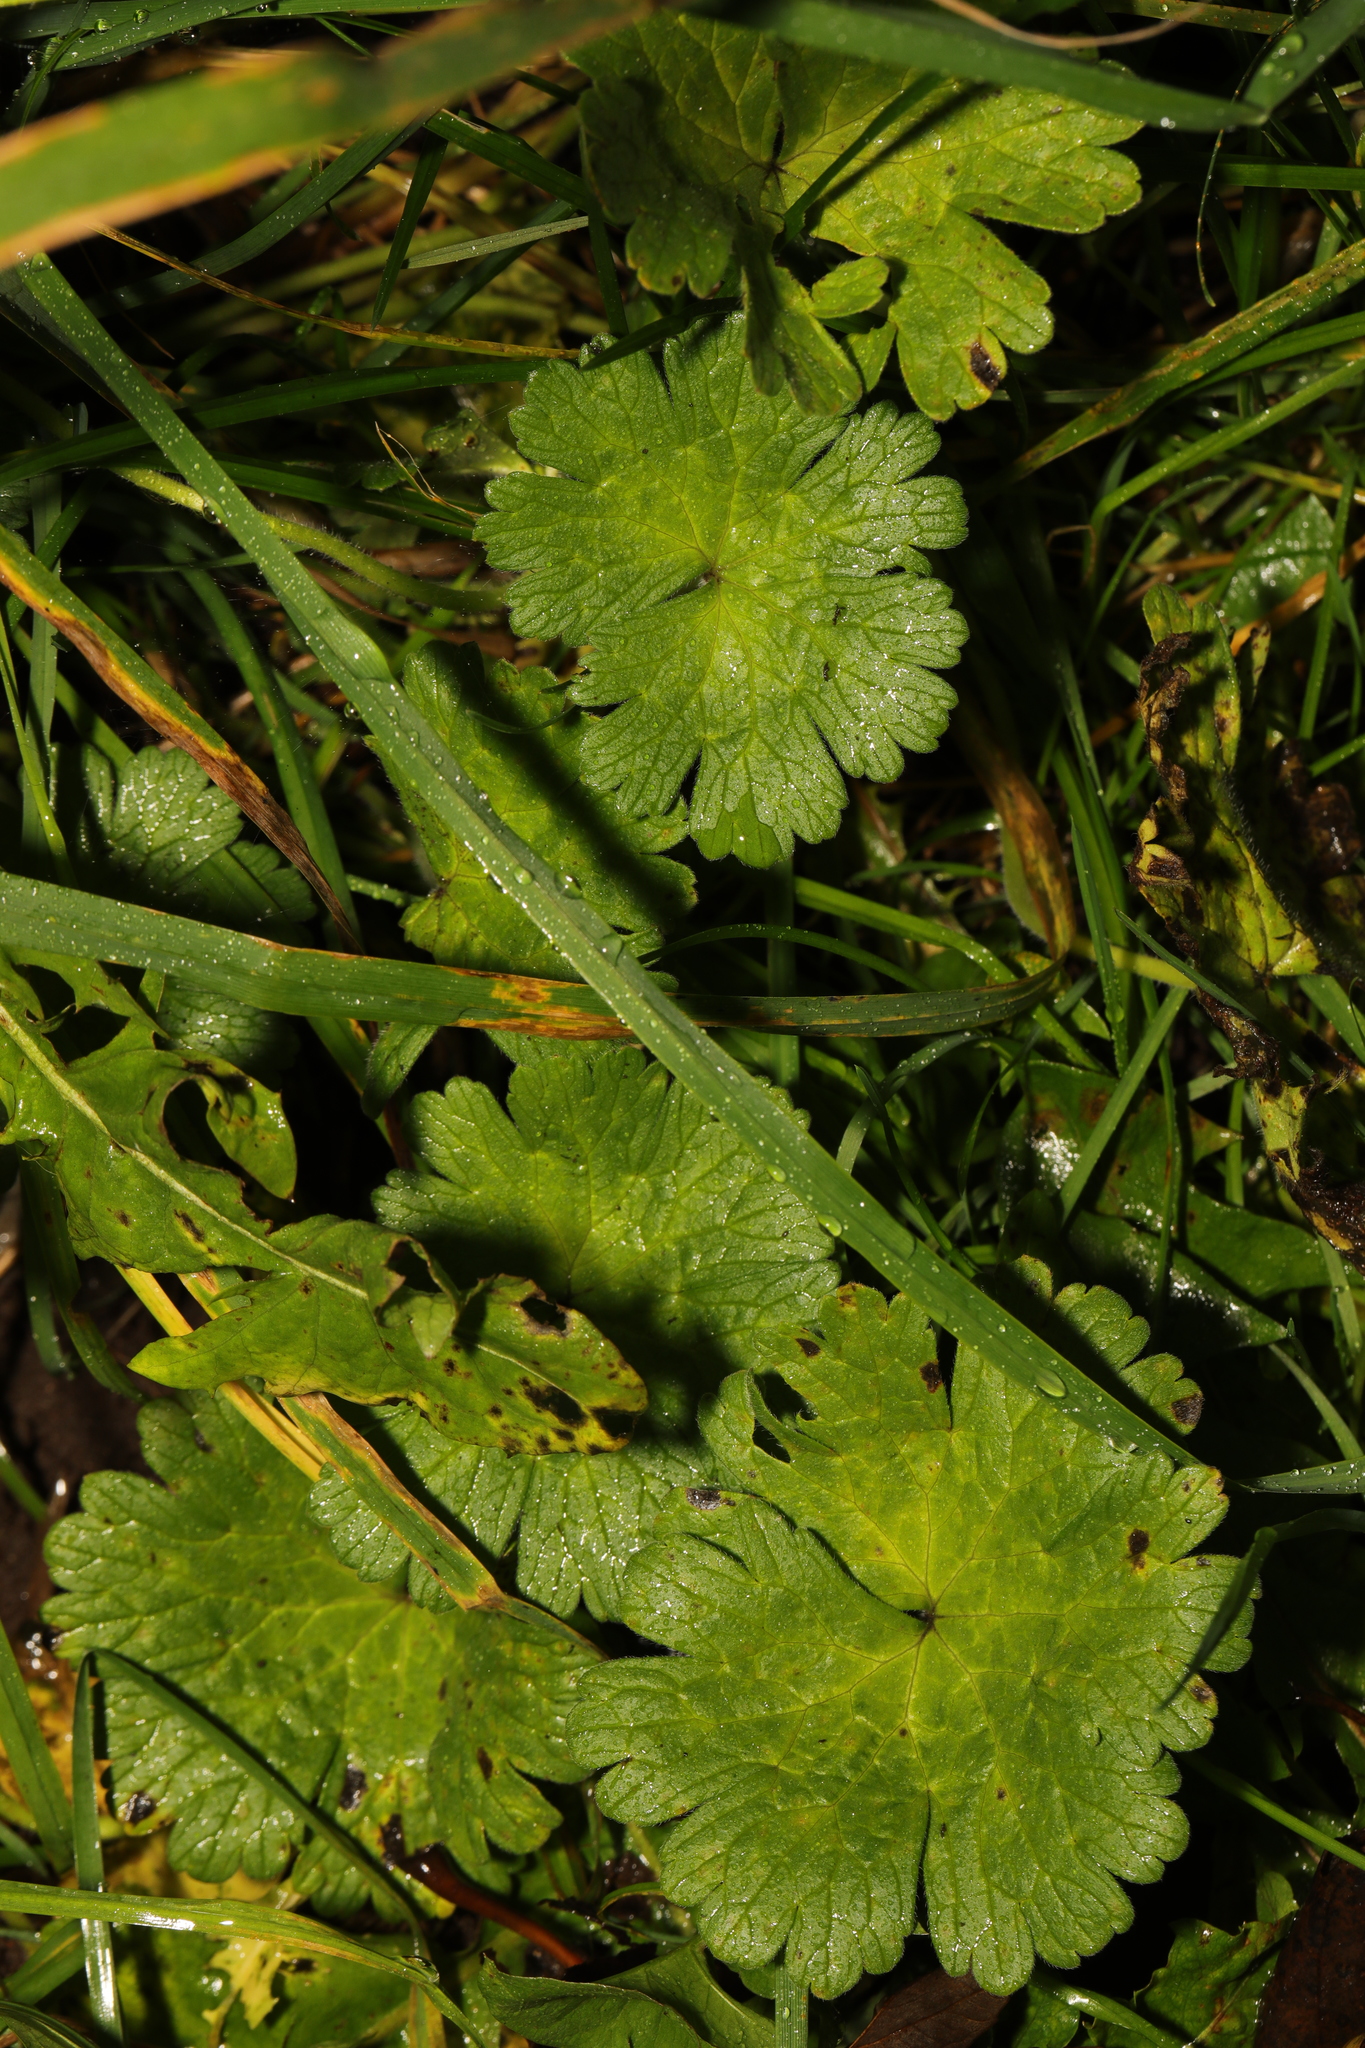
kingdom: Plantae
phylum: Tracheophyta
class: Magnoliopsida
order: Geraniales
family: Geraniaceae
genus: Geranium
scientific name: Geranium molle
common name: Dove's-foot crane's-bill
